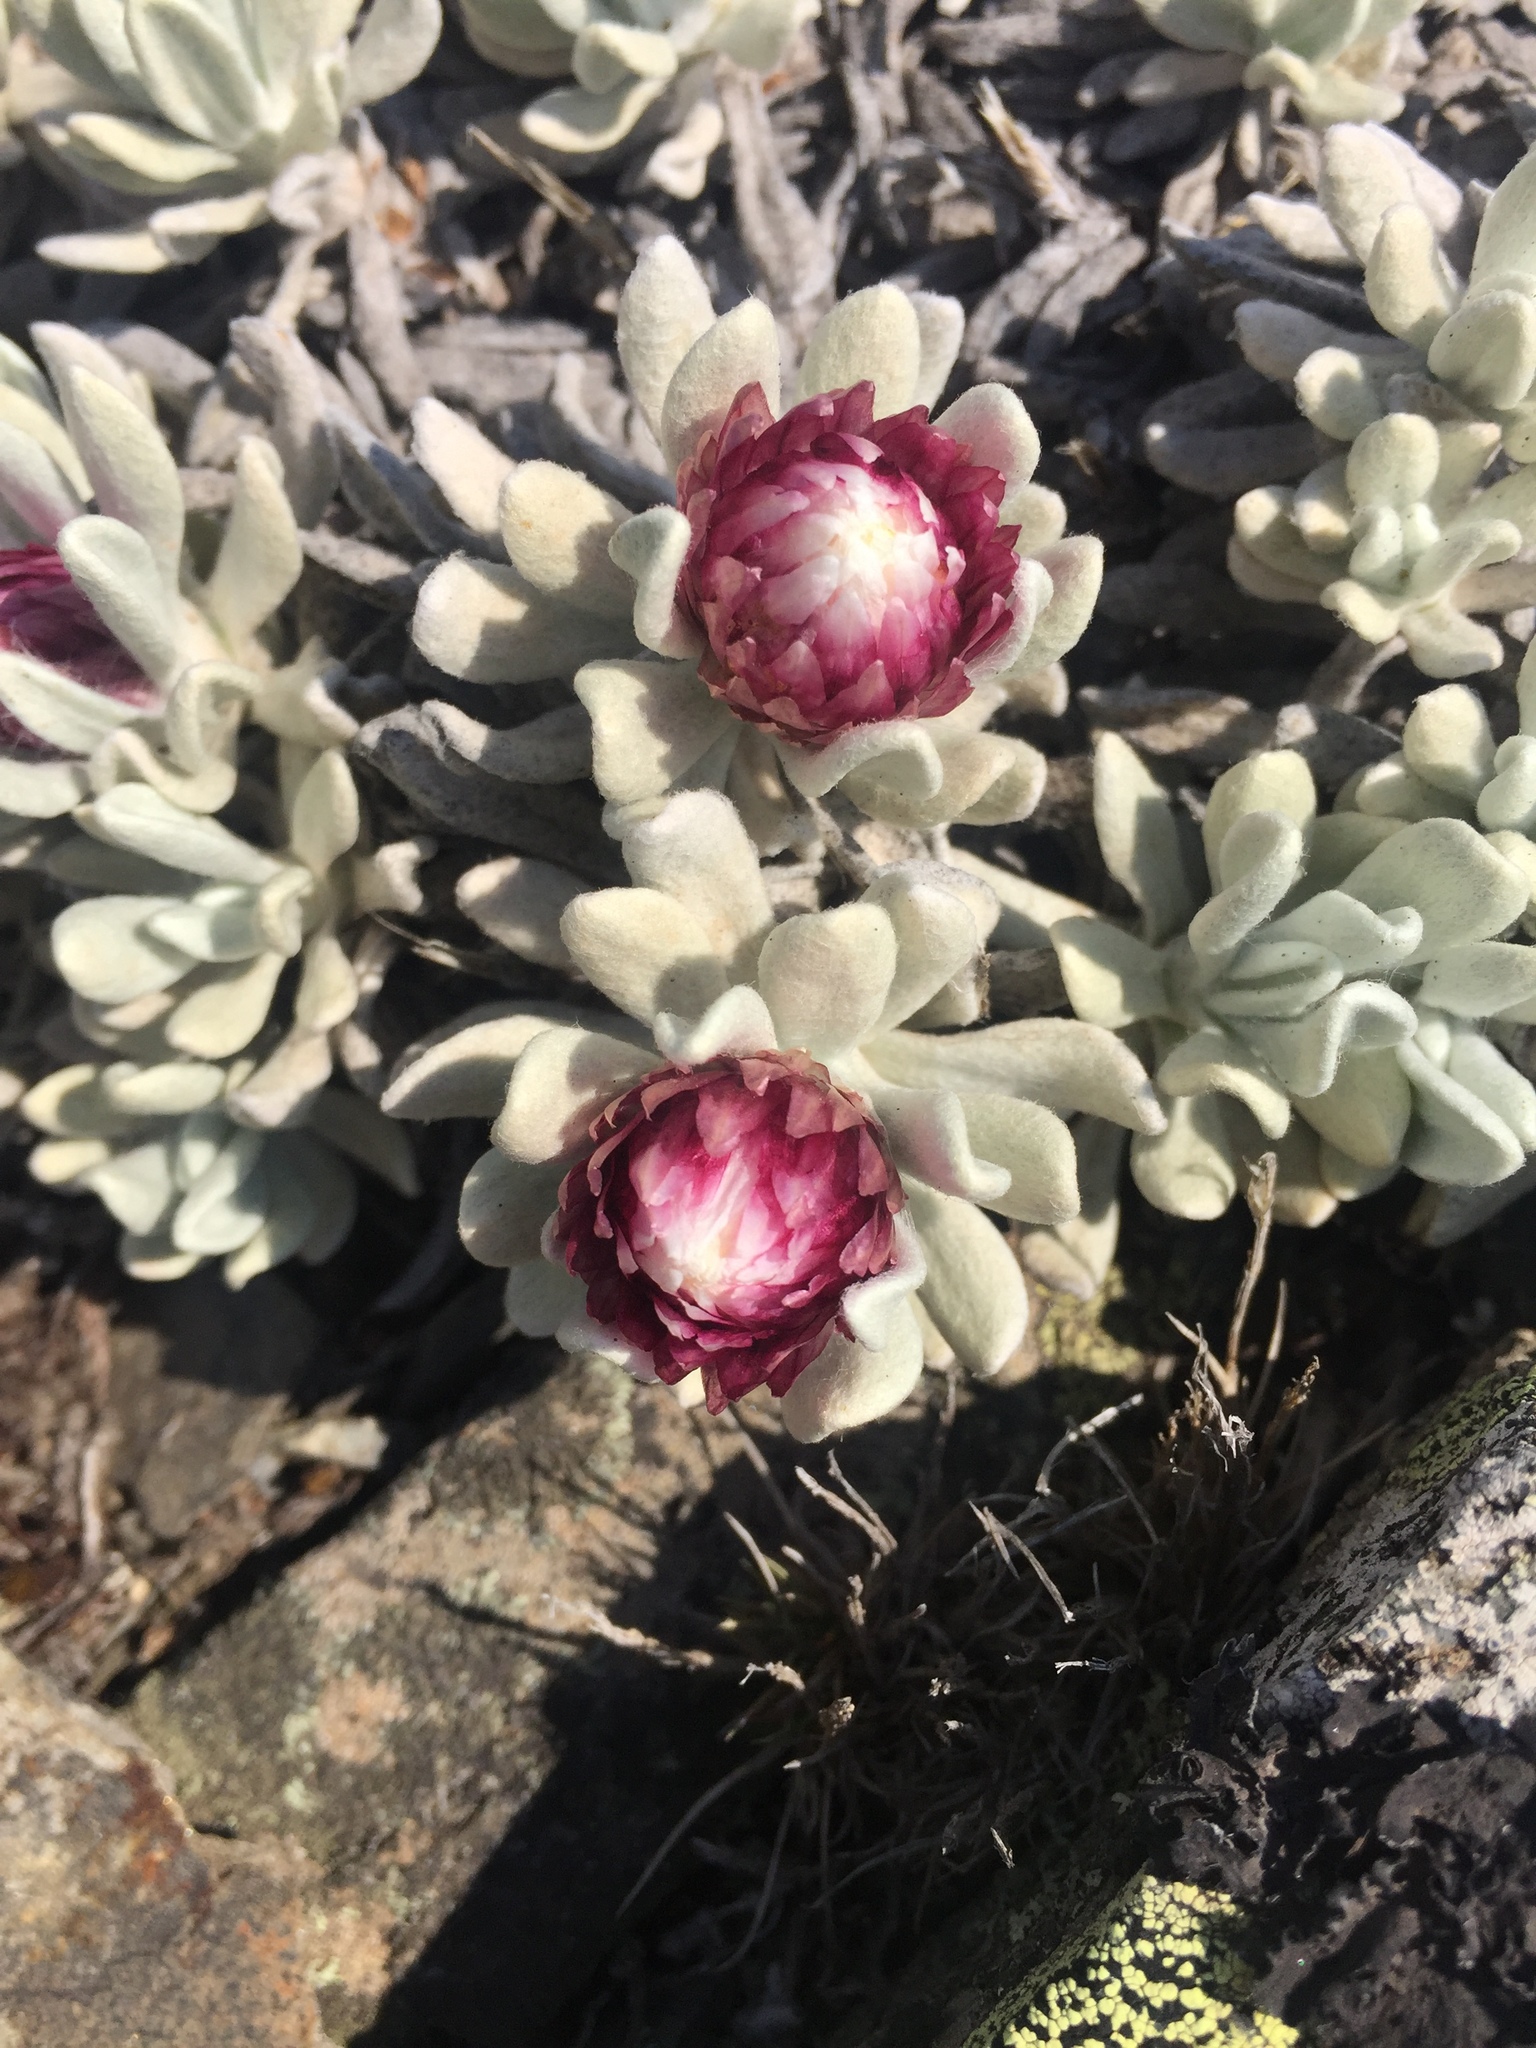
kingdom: Plantae
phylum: Tracheophyta
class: Magnoliopsida
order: Asterales
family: Asteraceae
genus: Leucochrysum
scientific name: Leucochrysum alpinum
